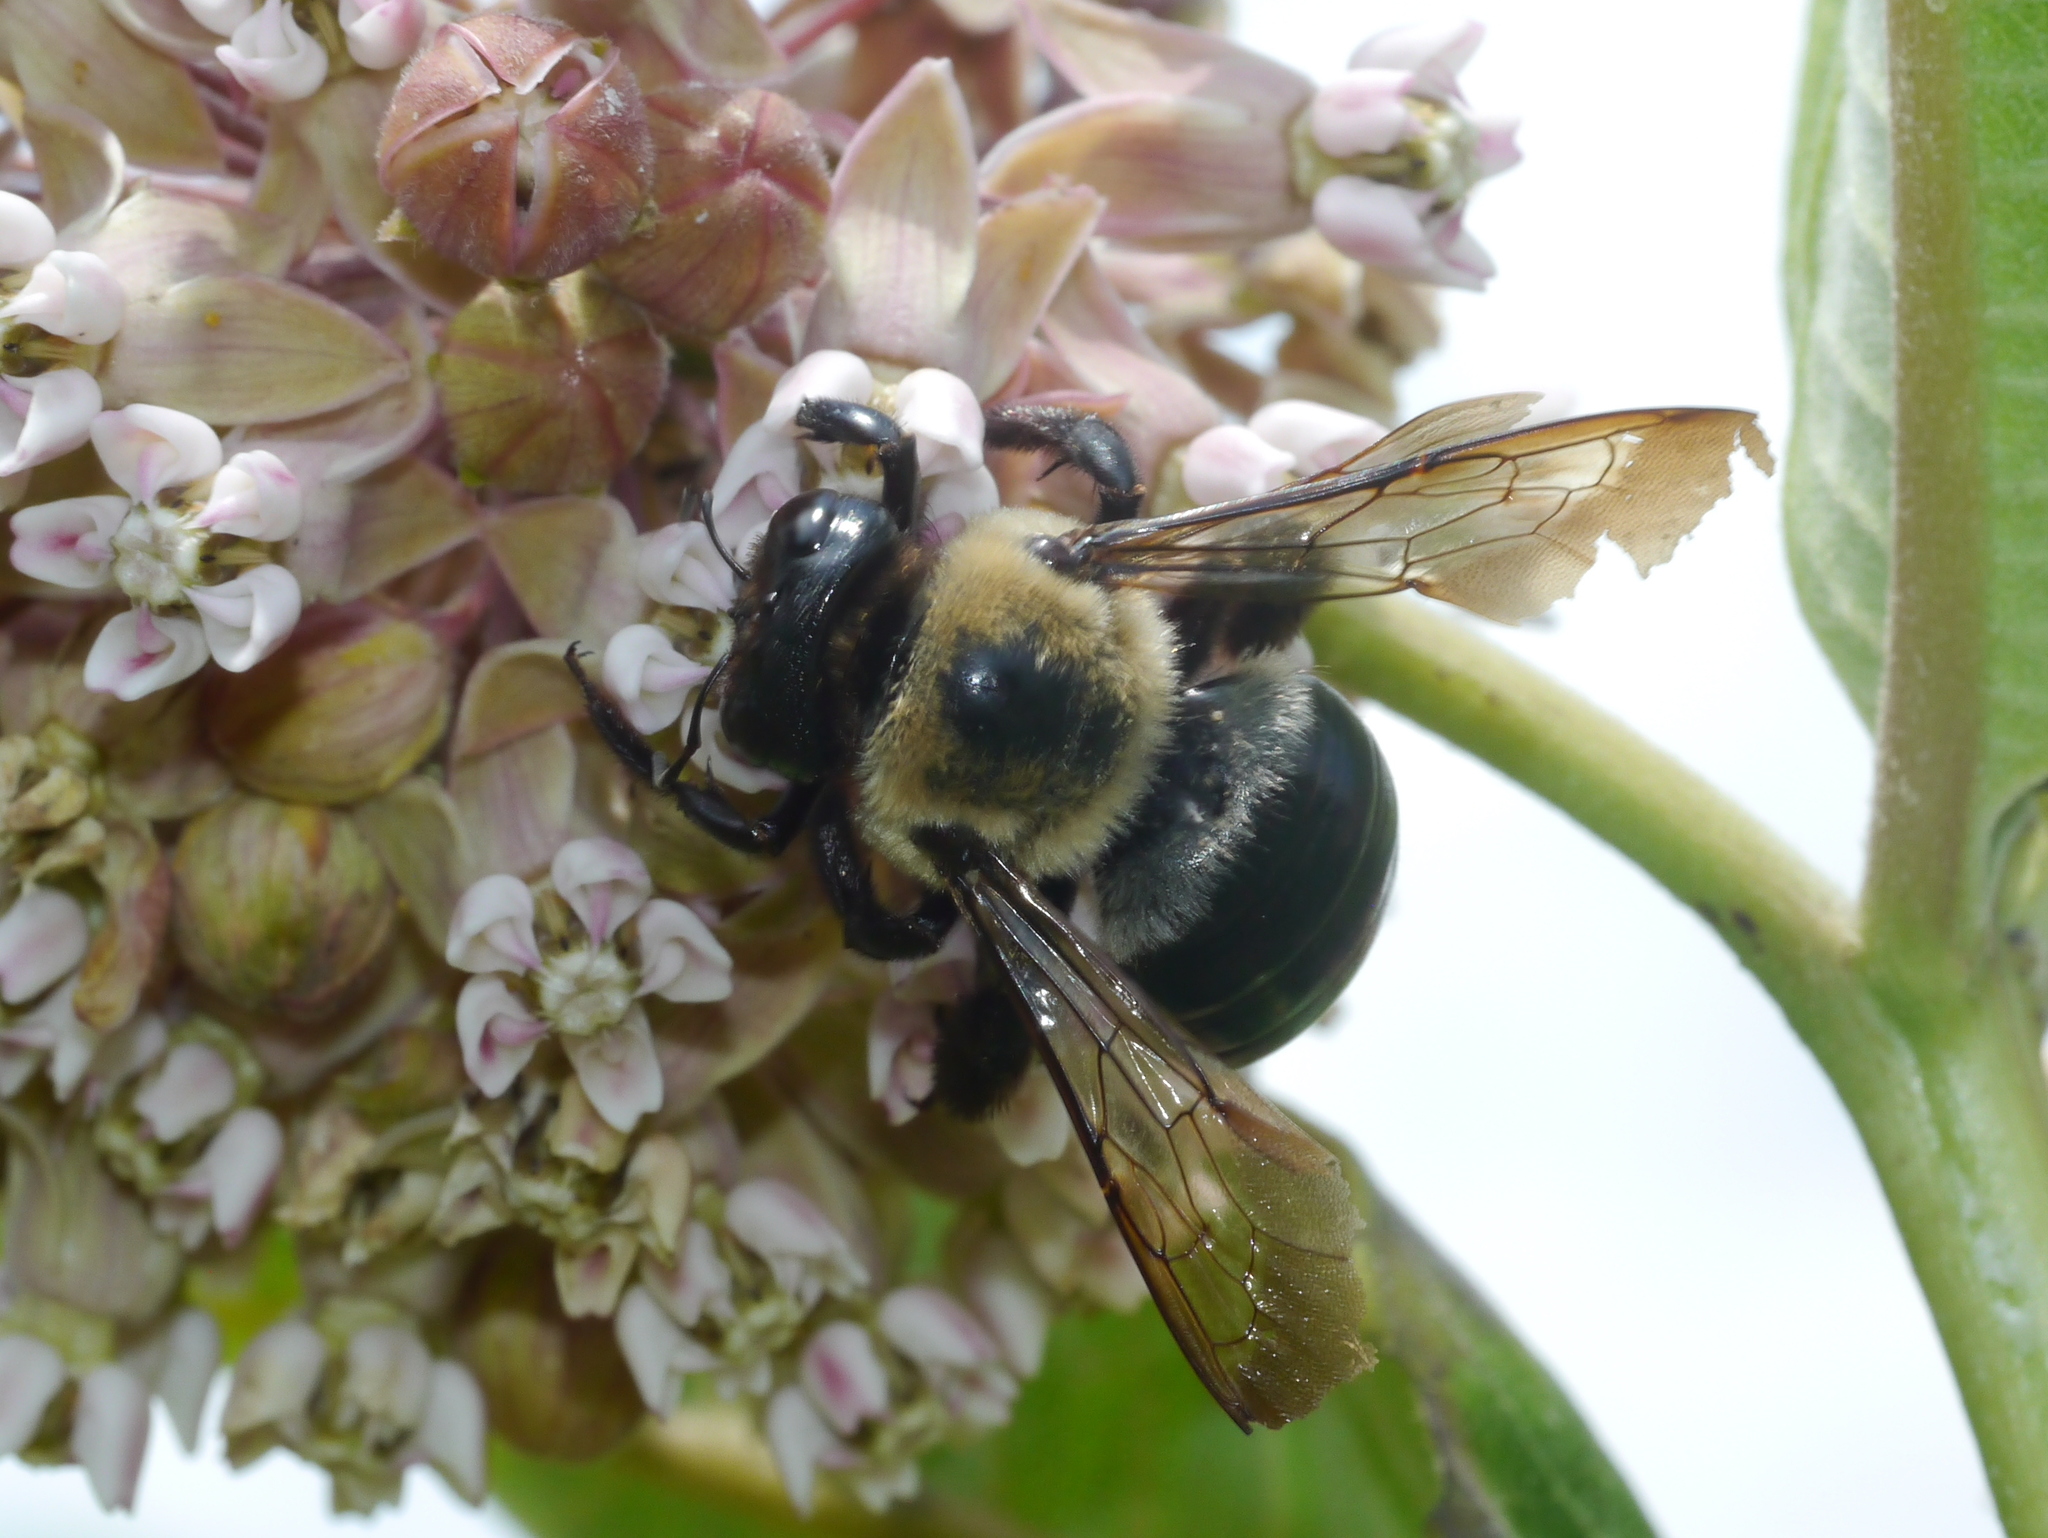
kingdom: Animalia
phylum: Arthropoda
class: Insecta
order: Hymenoptera
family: Apidae
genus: Xylocopa
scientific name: Xylocopa virginica
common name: Carpenter bee
